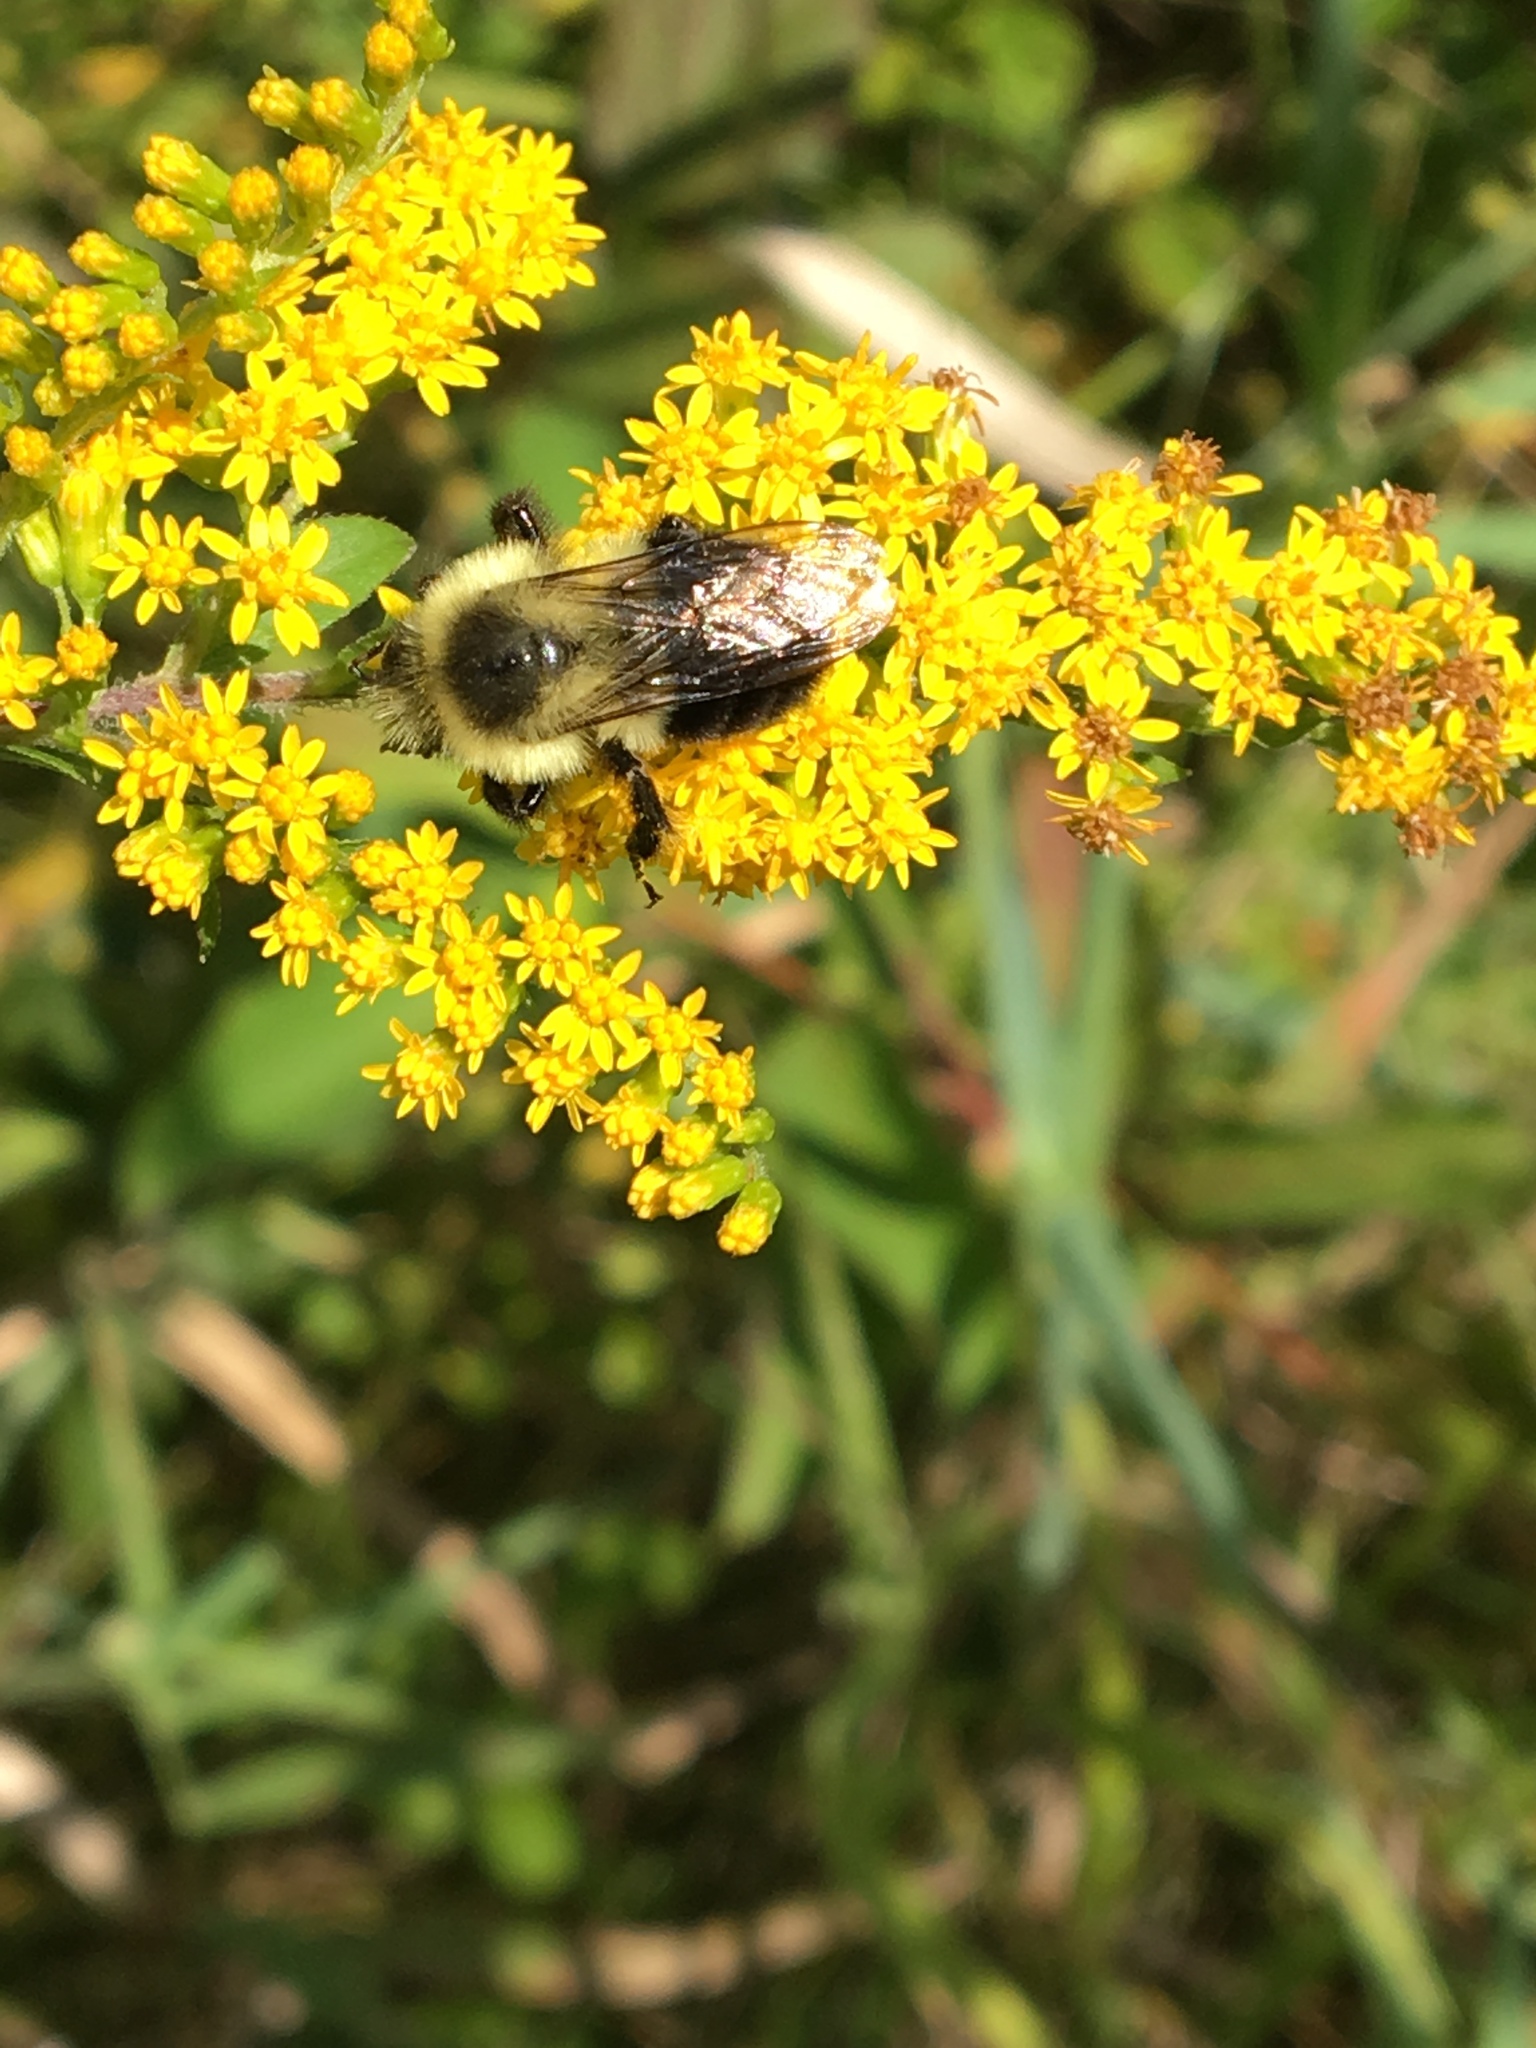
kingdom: Animalia
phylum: Arthropoda
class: Insecta
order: Hymenoptera
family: Apidae
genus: Bombus
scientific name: Bombus impatiens
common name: Common eastern bumble bee
